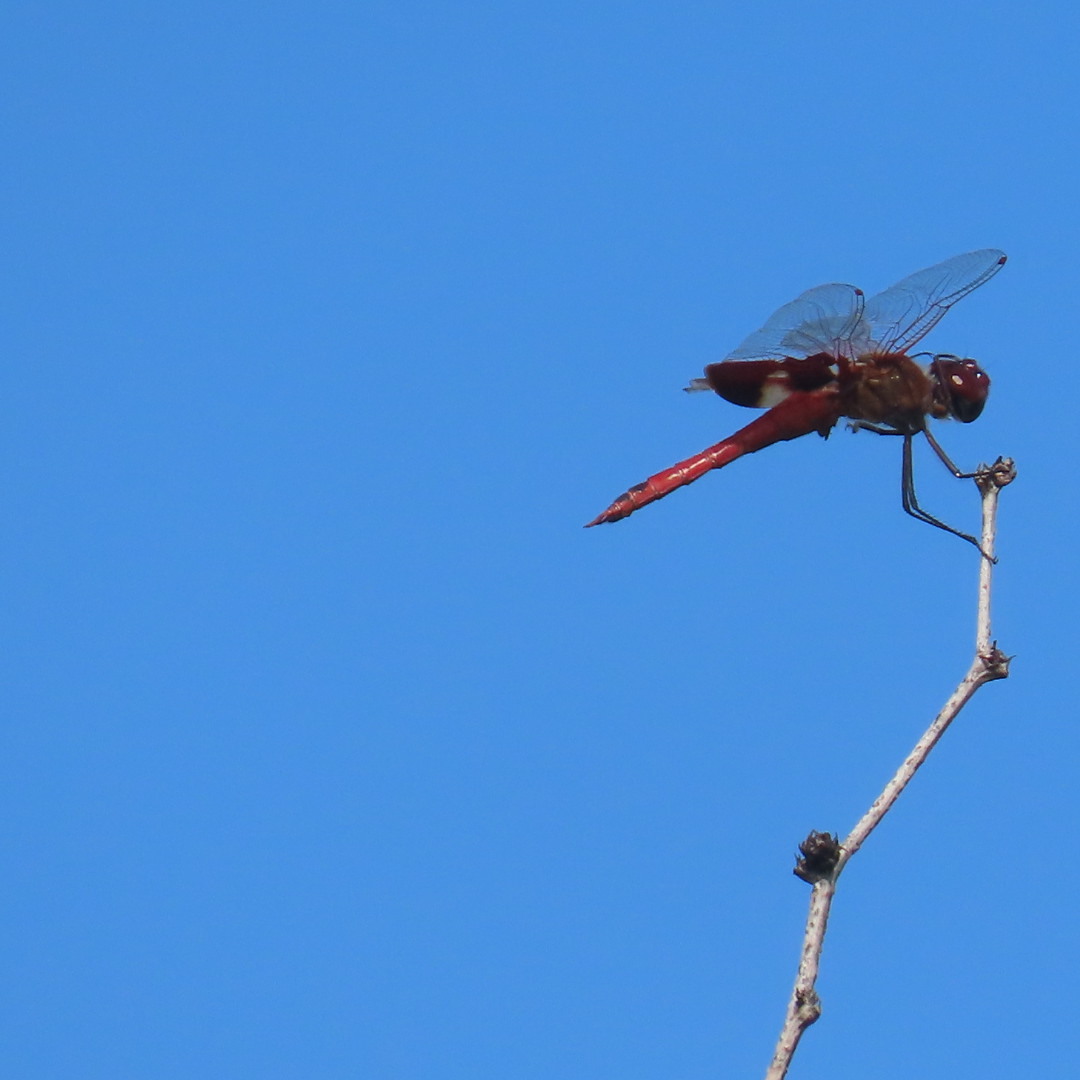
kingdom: Animalia
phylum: Arthropoda
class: Insecta
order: Odonata
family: Libellulidae
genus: Tramea
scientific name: Tramea onusta
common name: Red saddlebags
